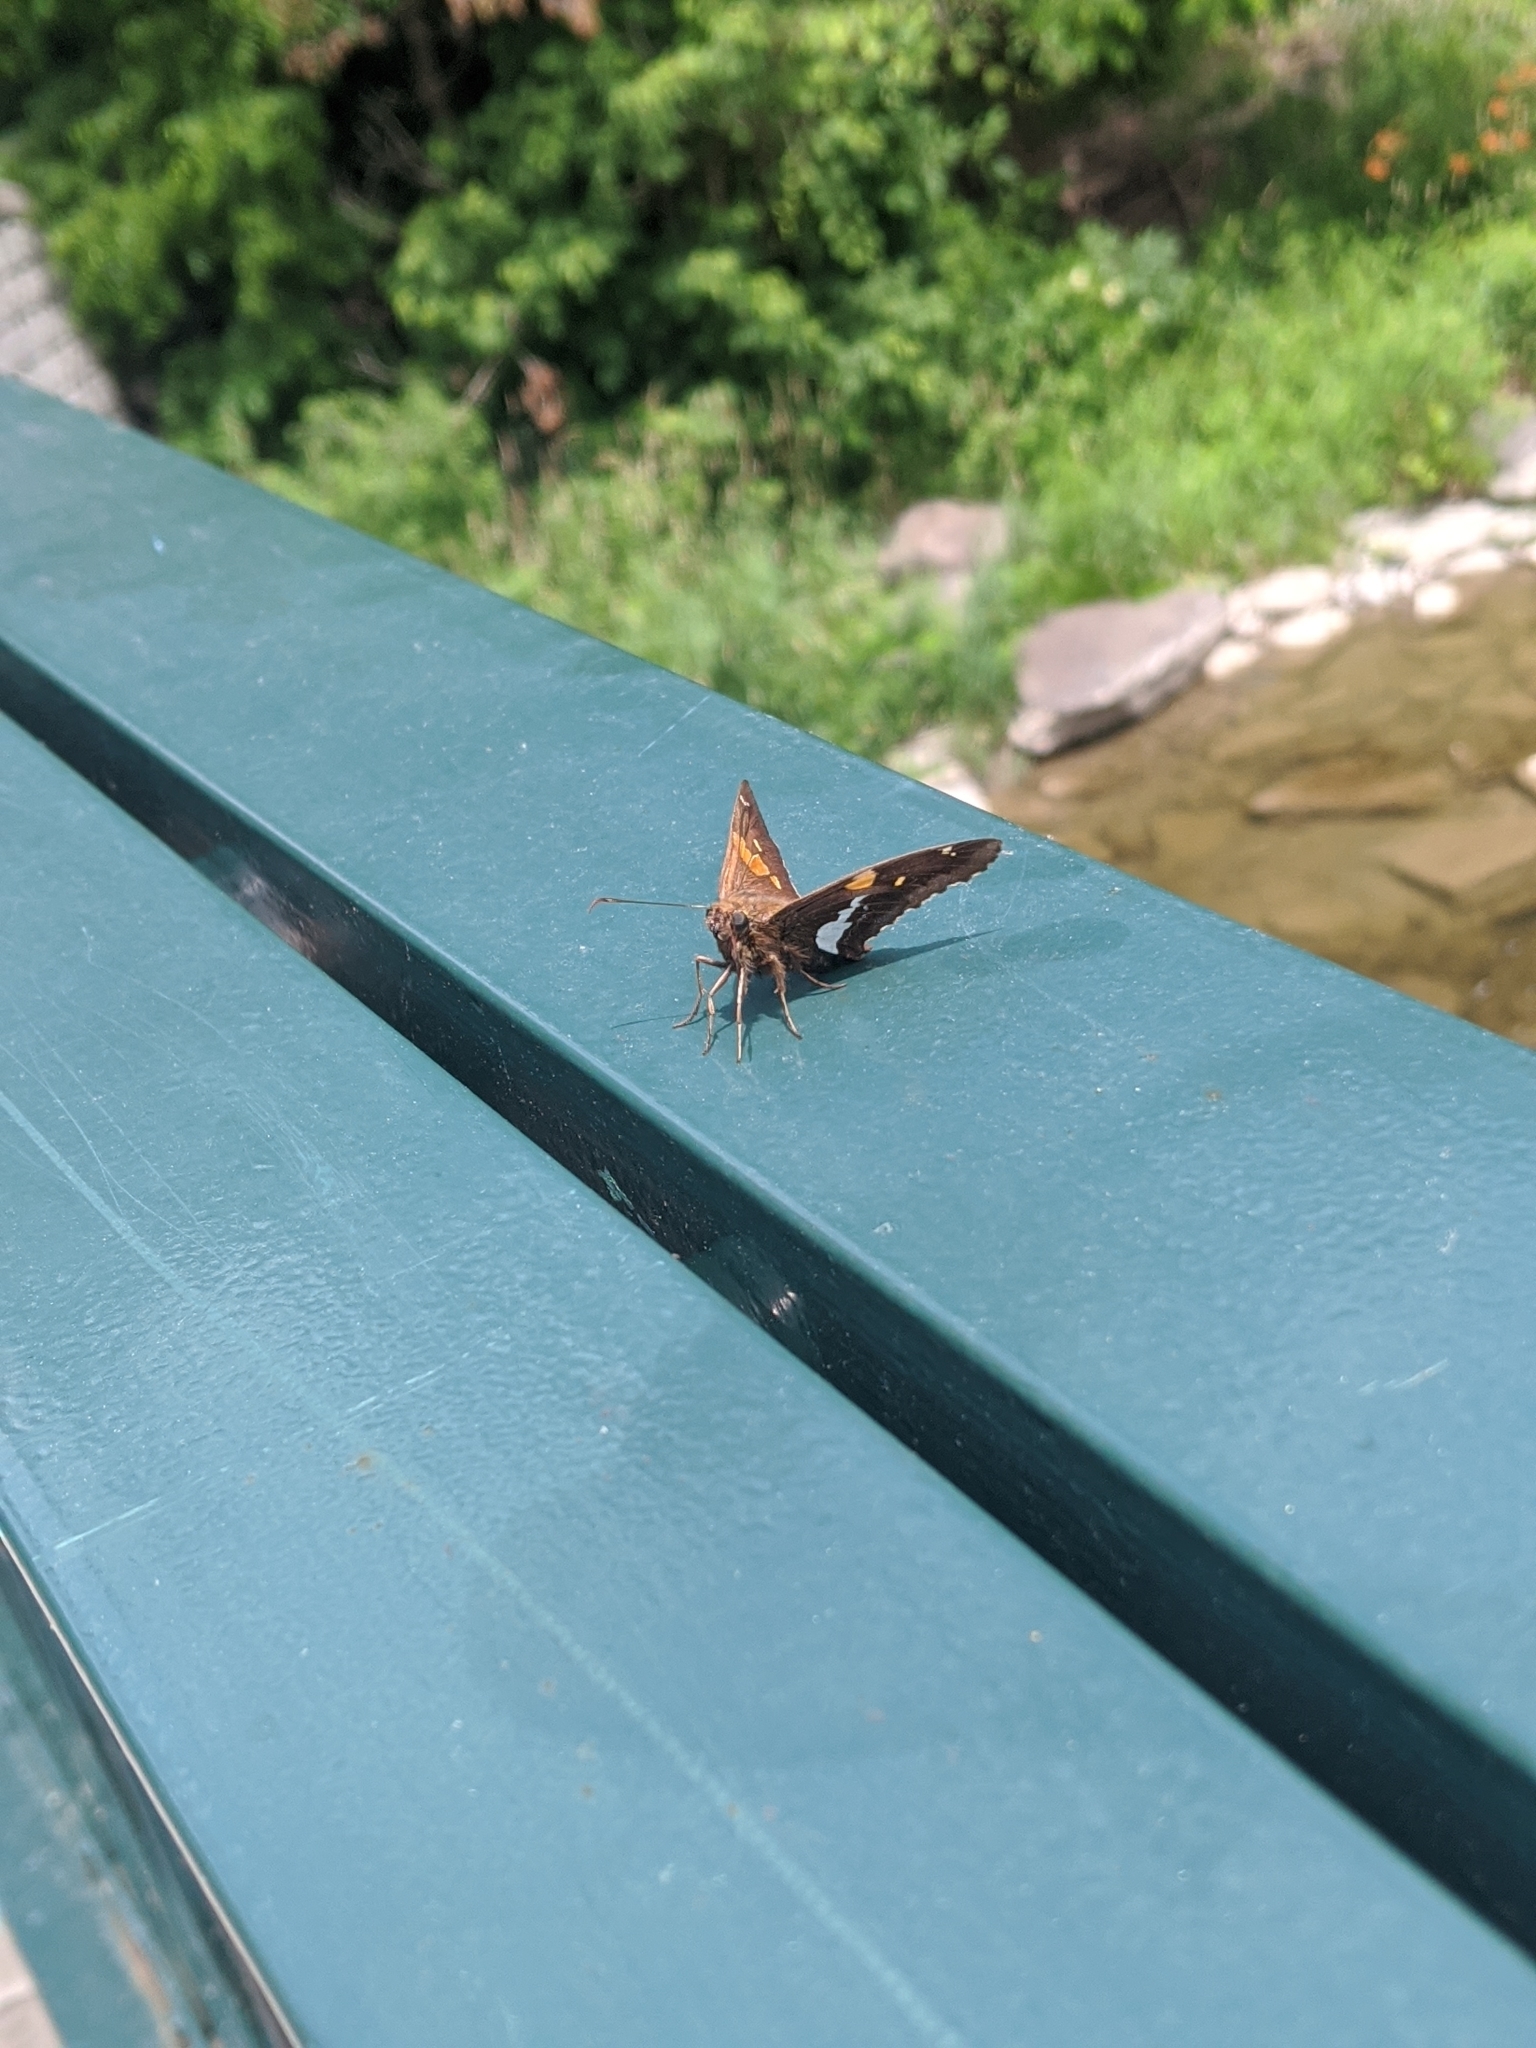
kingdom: Animalia
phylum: Arthropoda
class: Insecta
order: Lepidoptera
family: Hesperiidae
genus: Epargyreus
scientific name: Epargyreus clarus
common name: Silver-spotted skipper
